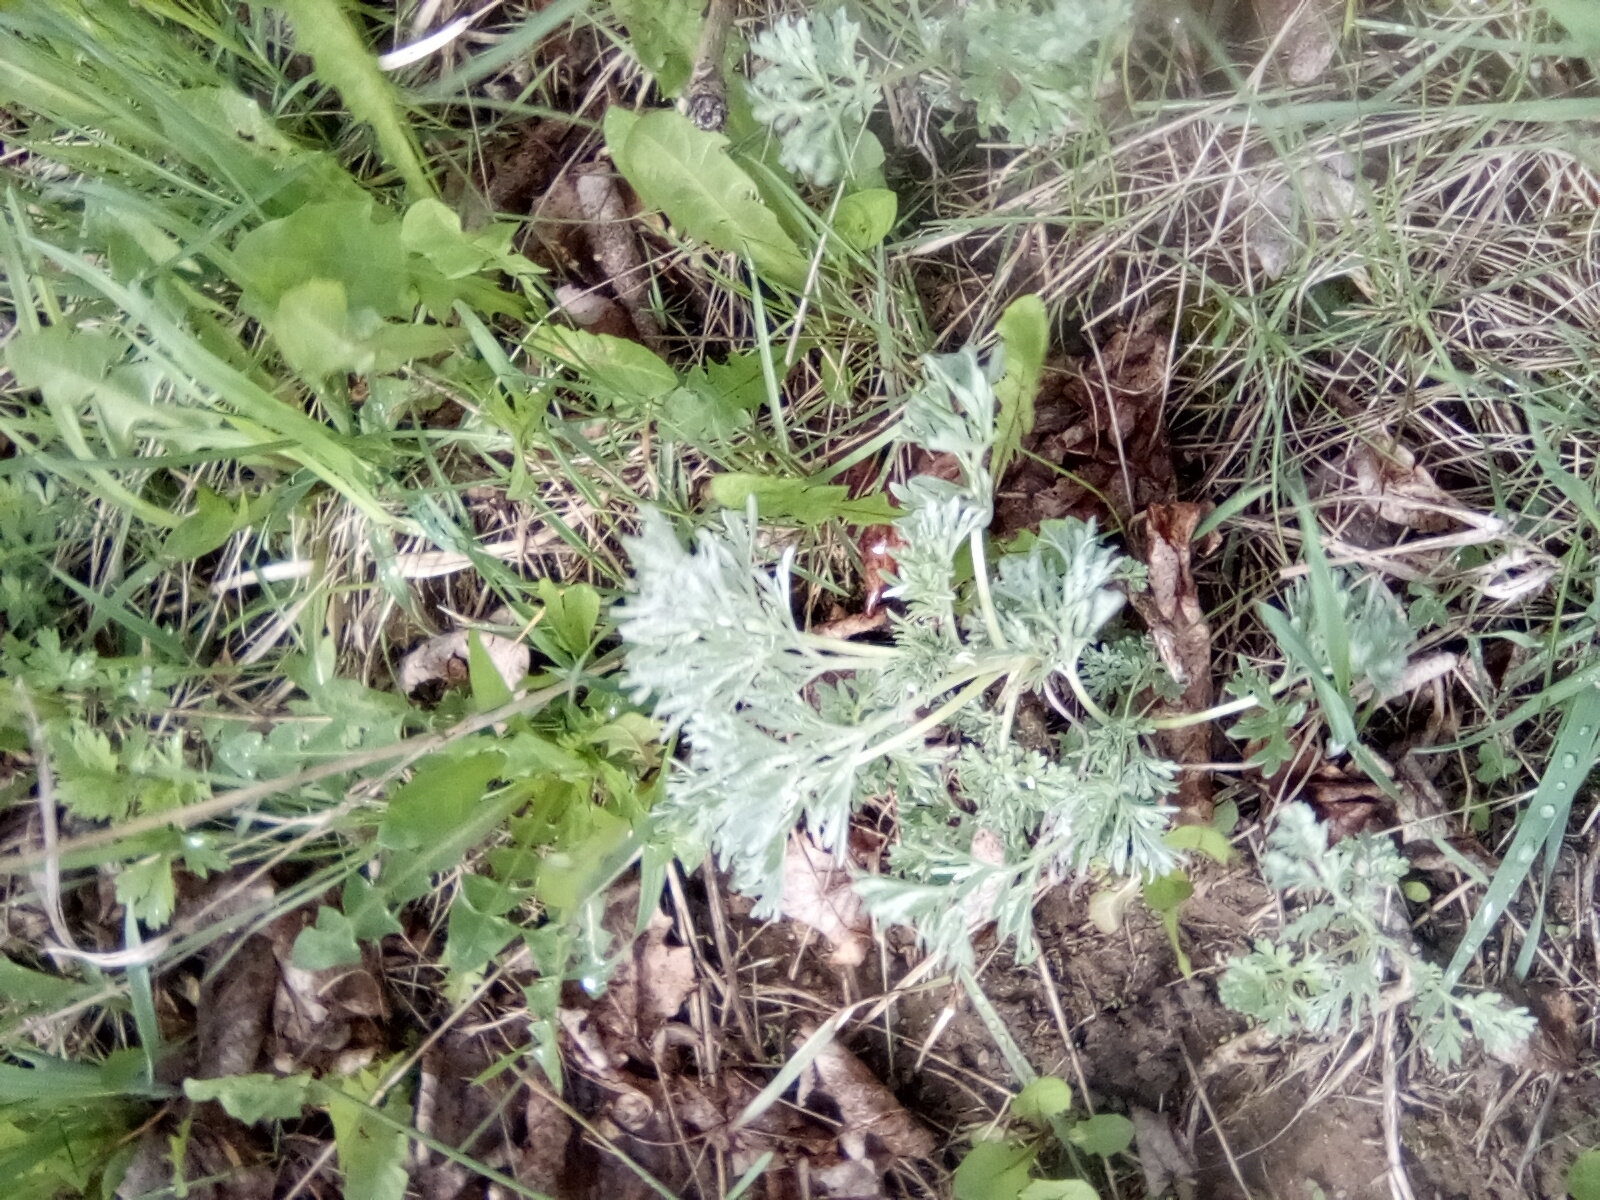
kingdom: Plantae
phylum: Tracheophyta
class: Magnoliopsida
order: Asterales
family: Asteraceae
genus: Artemisia
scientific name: Artemisia absinthium
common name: Wormwood
